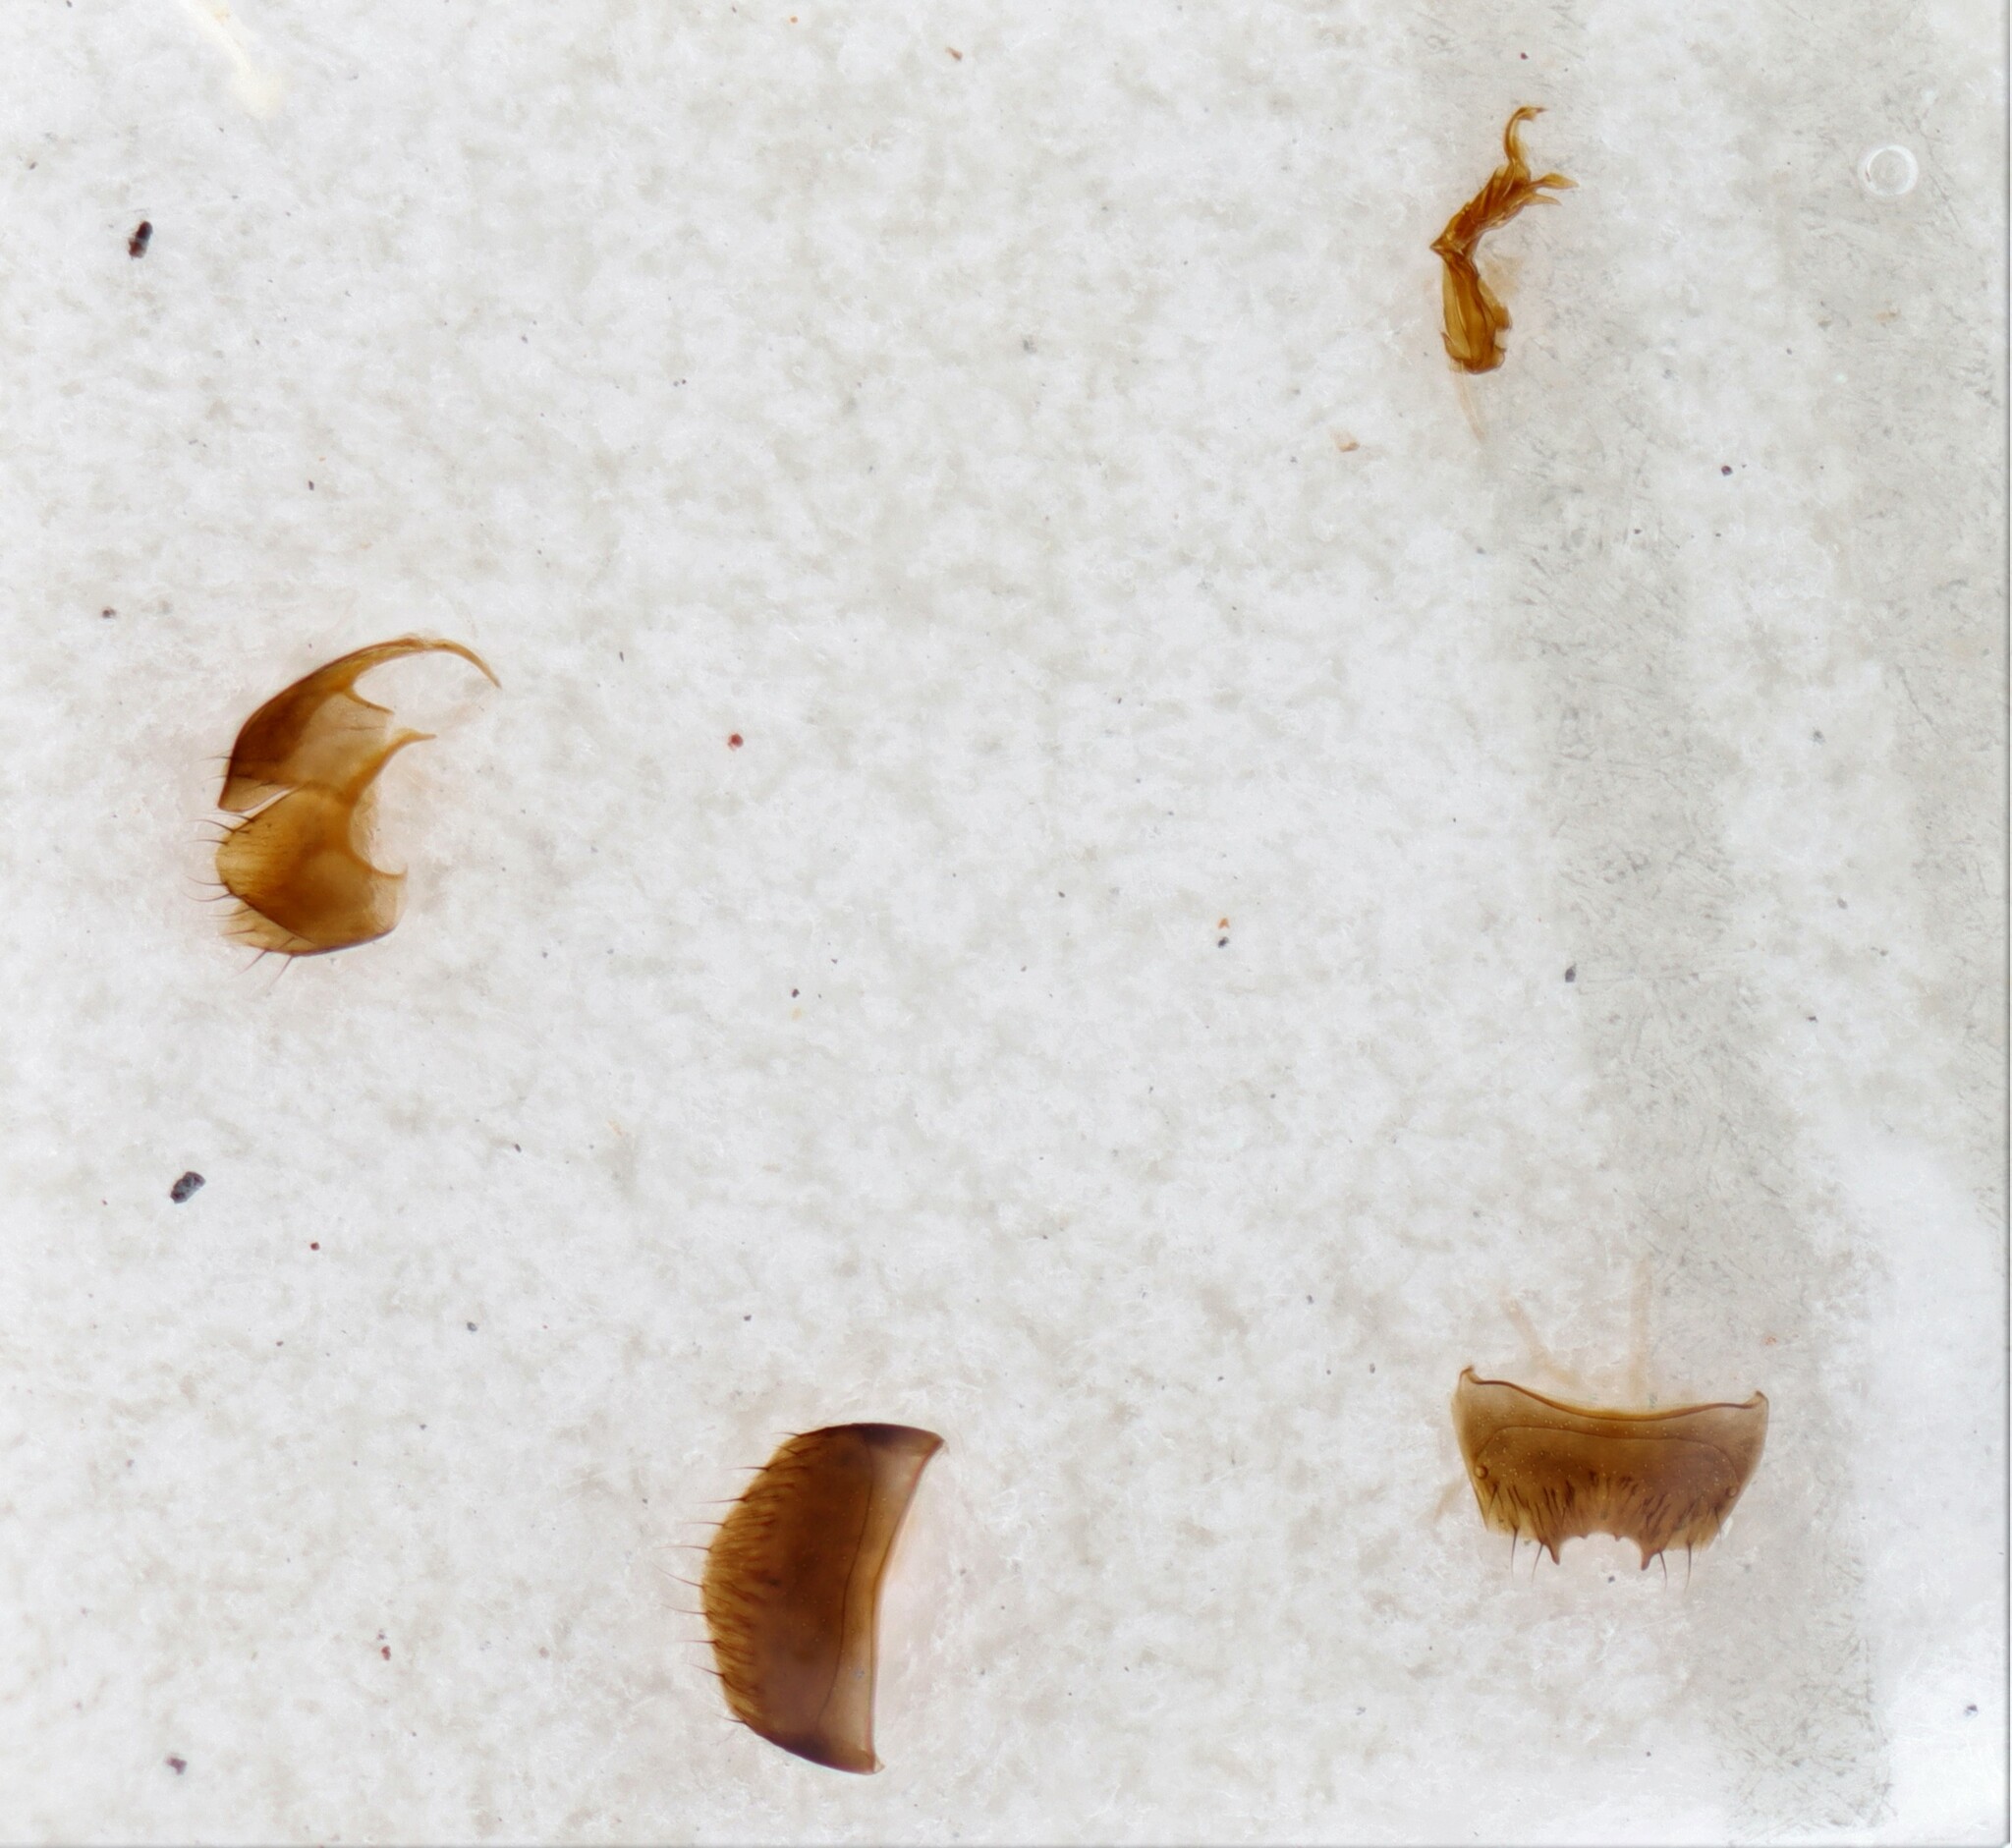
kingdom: Animalia
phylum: Arthropoda
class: Insecta
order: Coleoptera
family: Staphylinidae
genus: Gyrophaena
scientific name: Gyrophaena meduxnekeagensis
